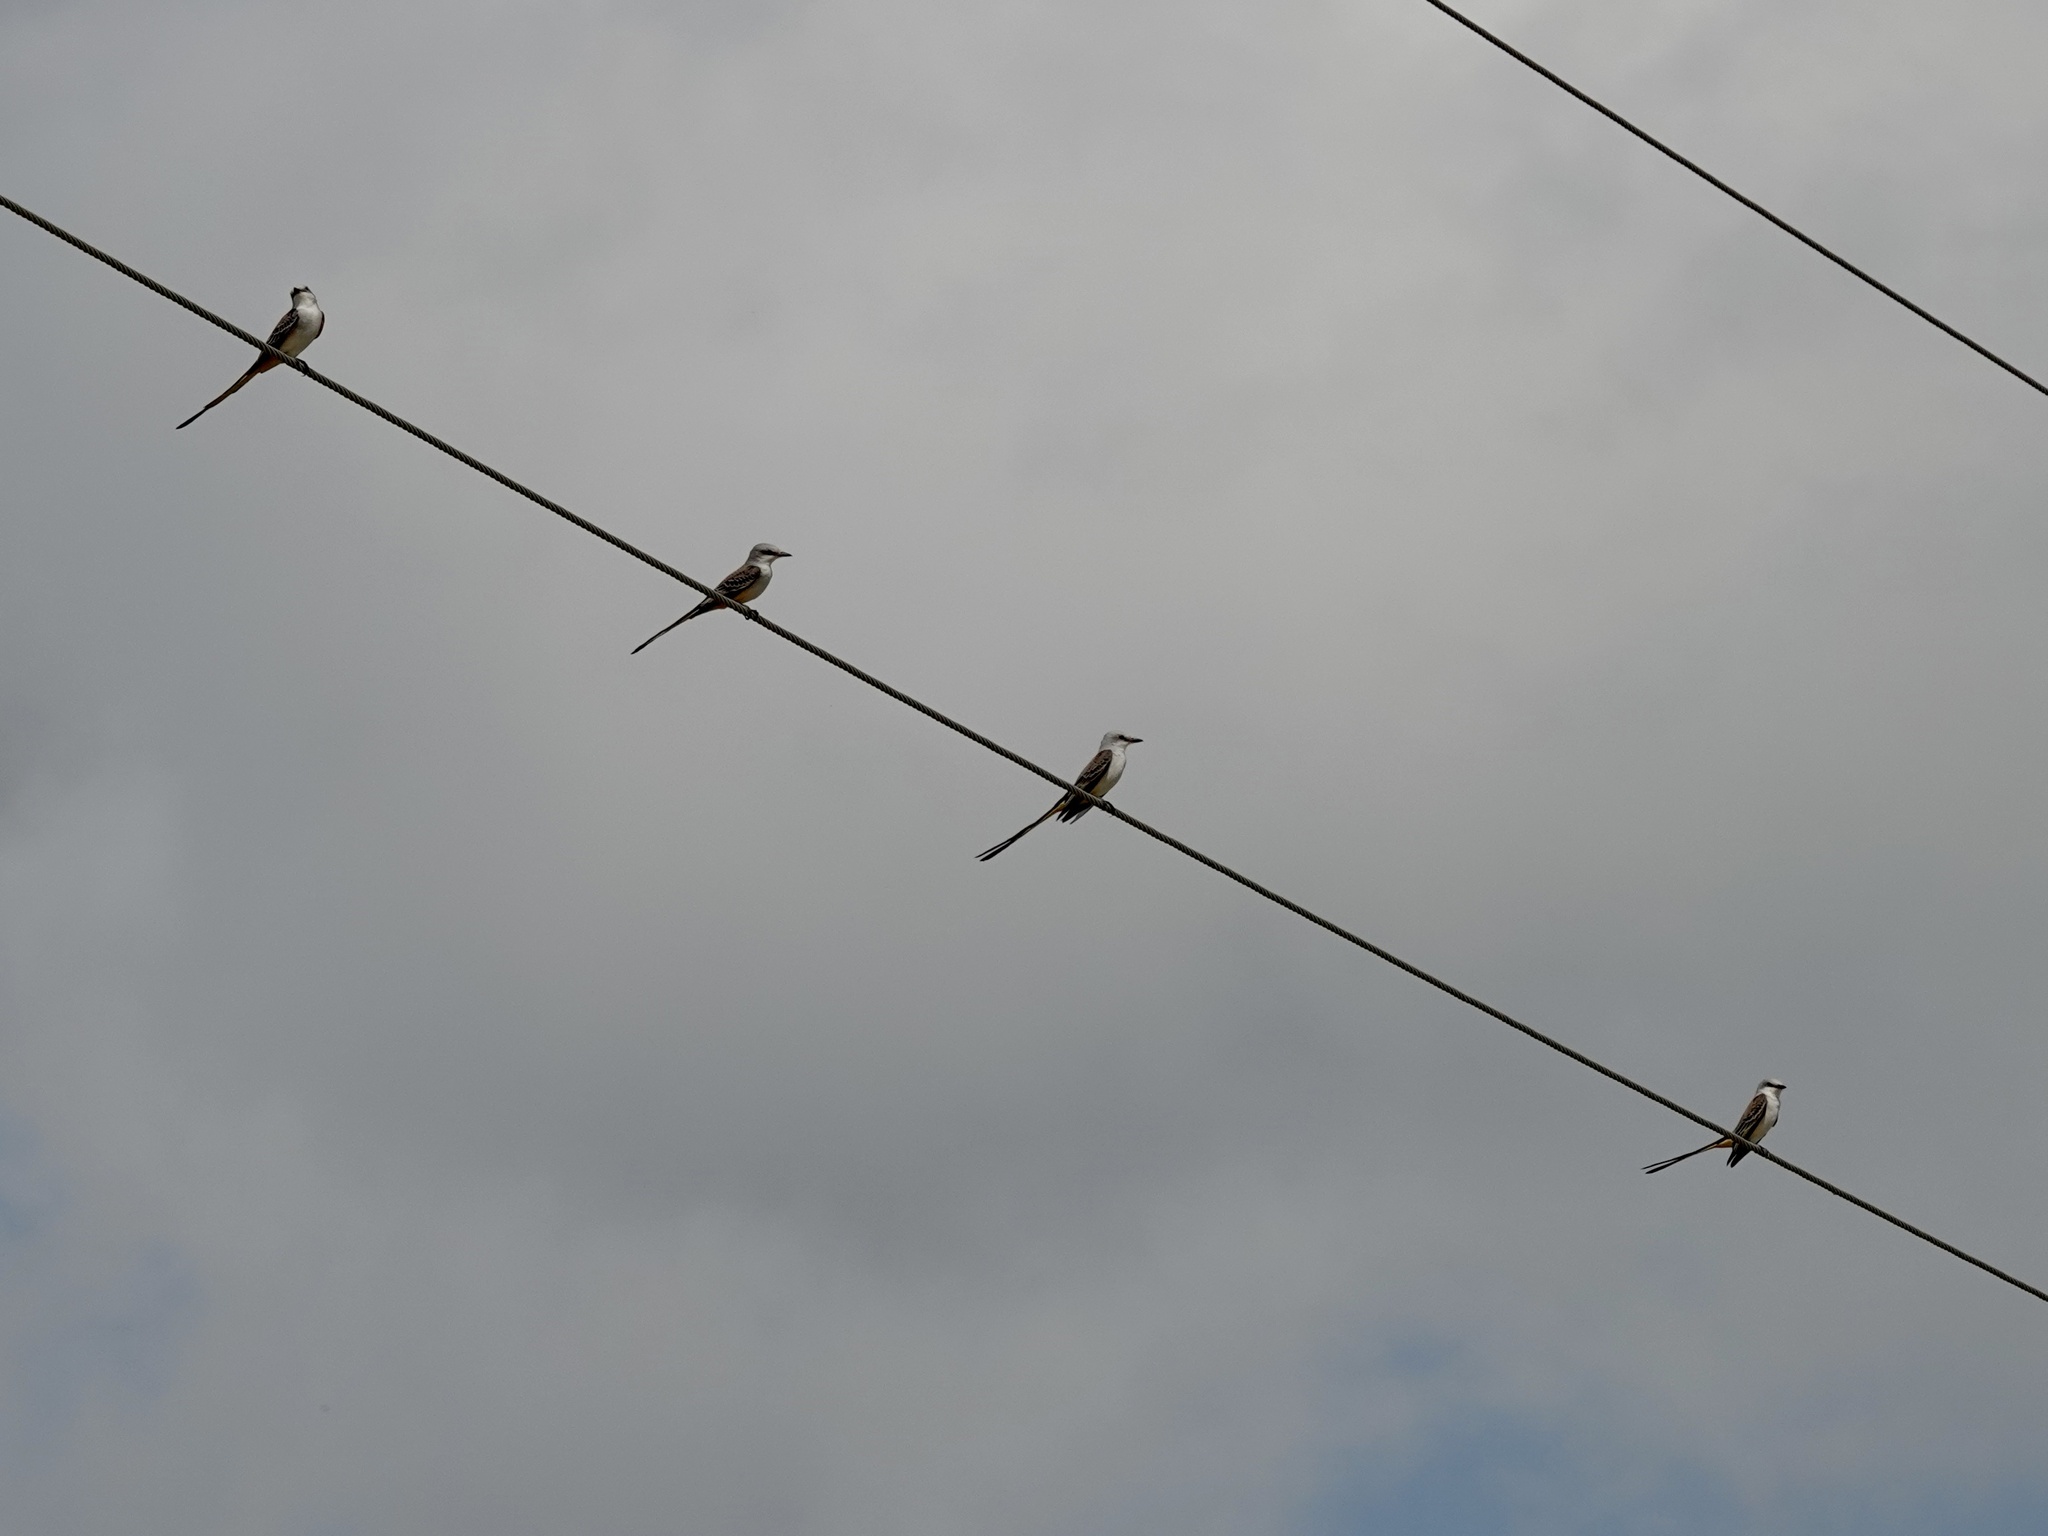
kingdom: Animalia
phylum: Chordata
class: Aves
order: Passeriformes
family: Tyrannidae
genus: Tyrannus
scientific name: Tyrannus forficatus
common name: Scissor-tailed flycatcher
